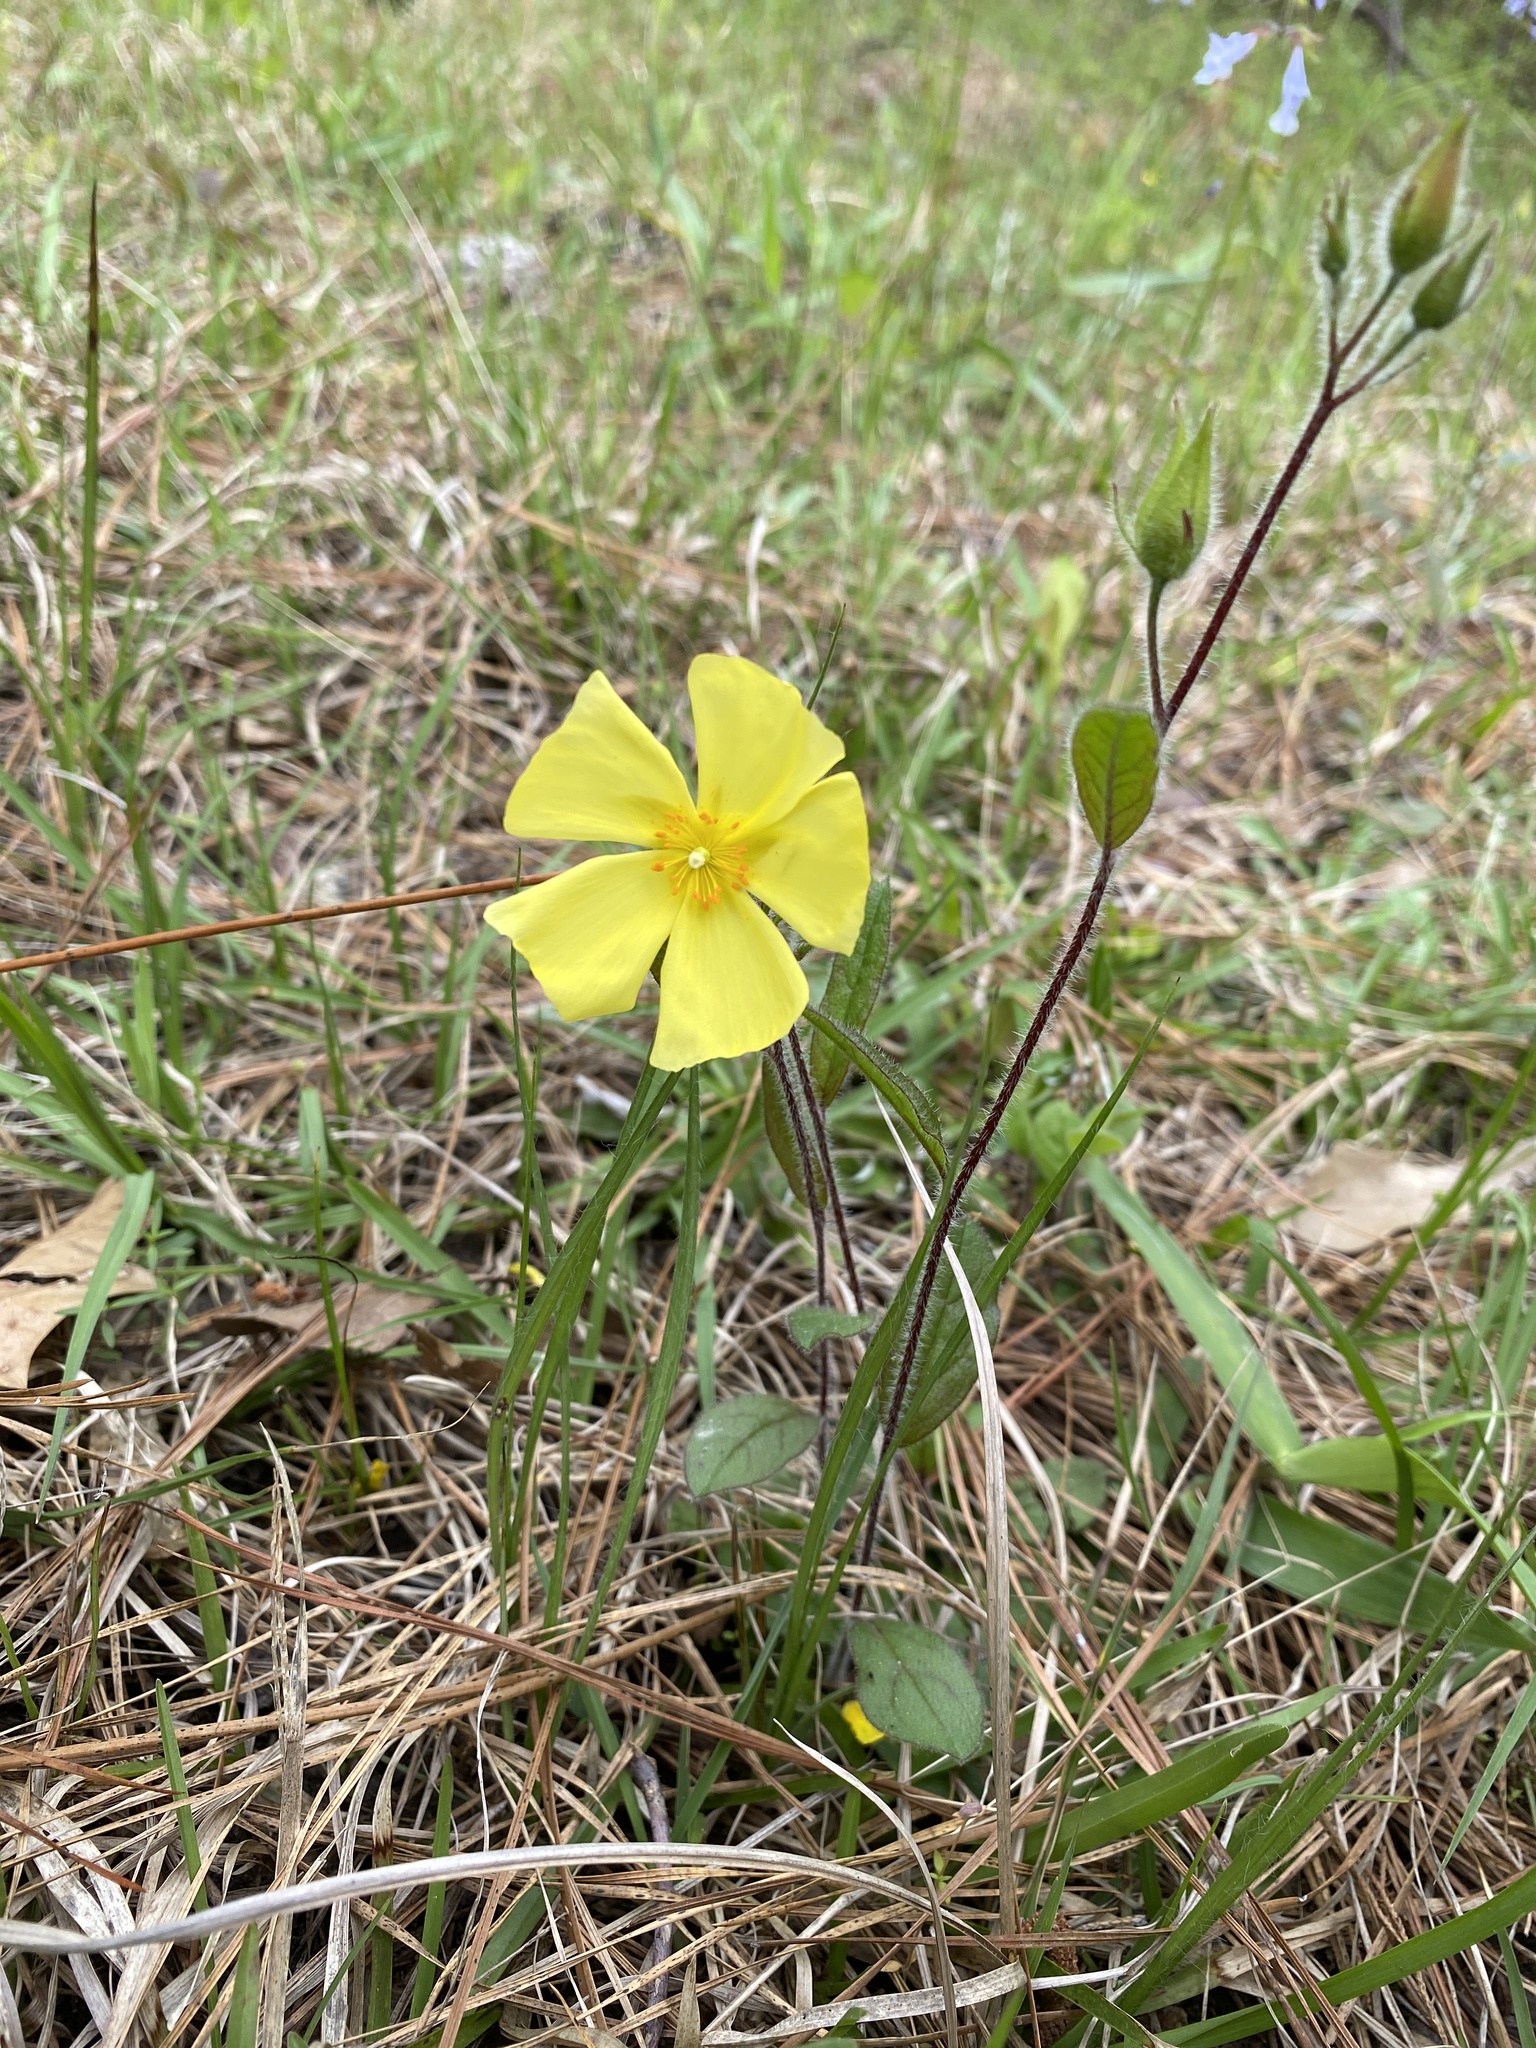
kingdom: Plantae
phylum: Tracheophyta
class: Magnoliopsida
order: Malvales
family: Cistaceae
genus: Crocanthemum
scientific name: Crocanthemum carolinianum
